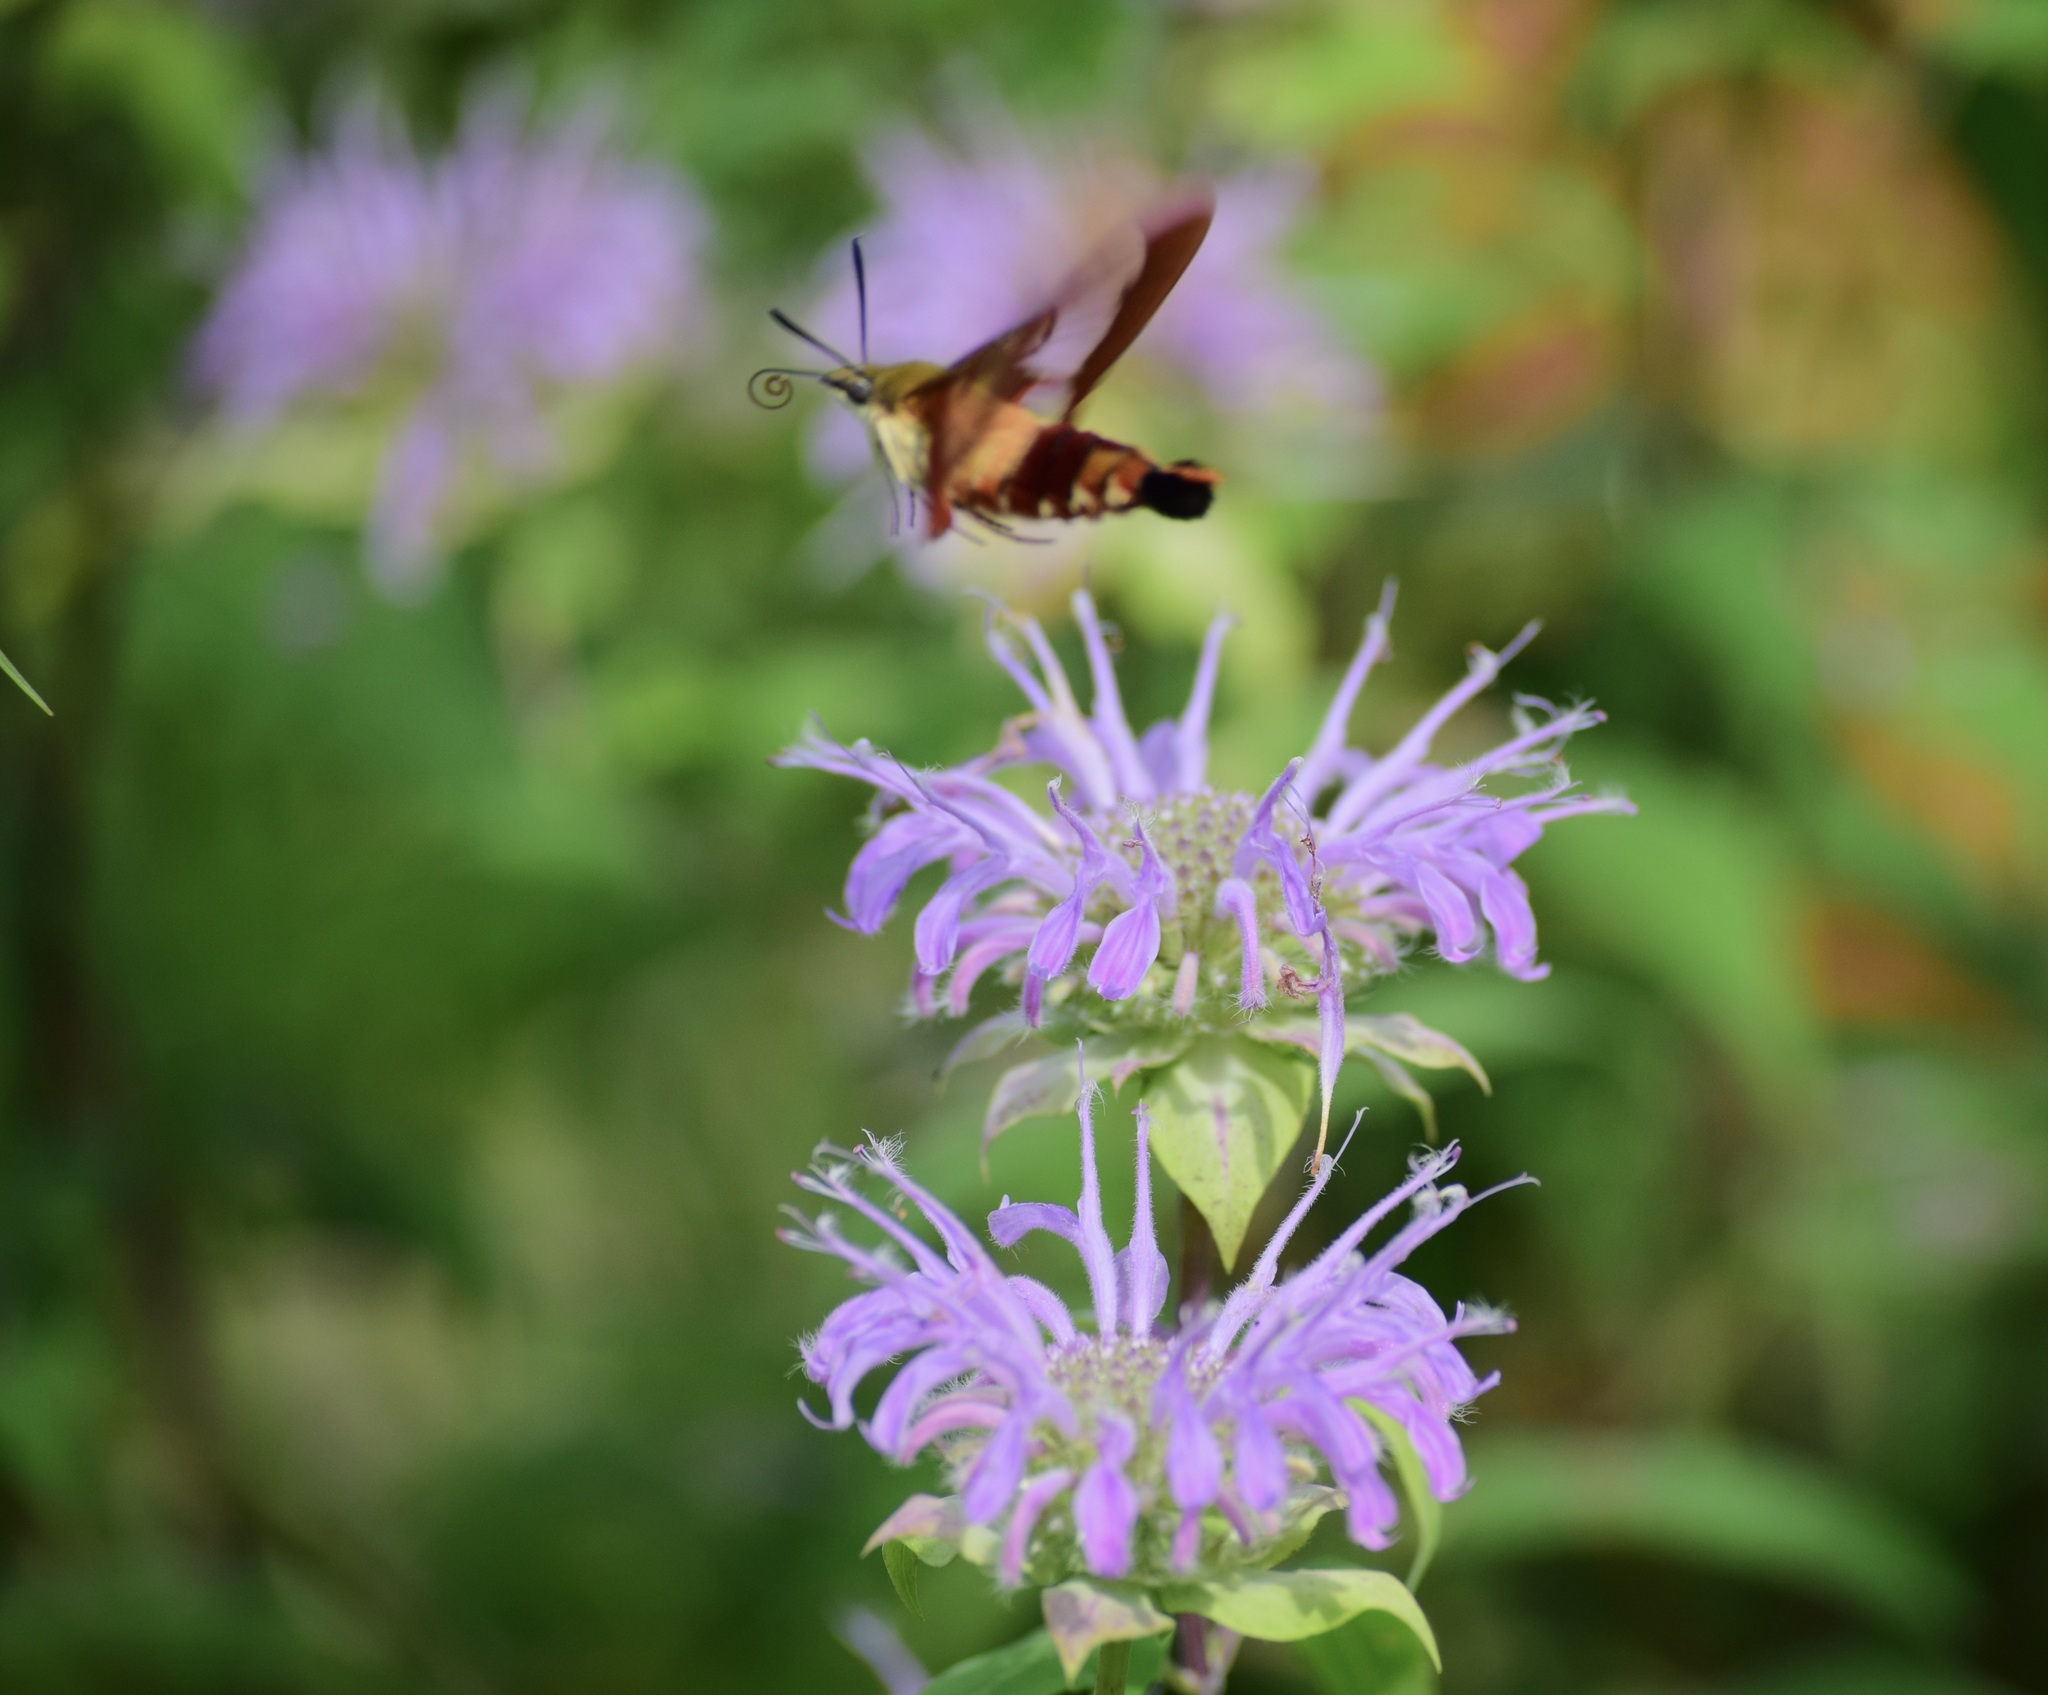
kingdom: Animalia
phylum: Arthropoda
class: Insecta
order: Lepidoptera
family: Sphingidae
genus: Hemaris
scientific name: Hemaris thysbe
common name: Common clear-wing
